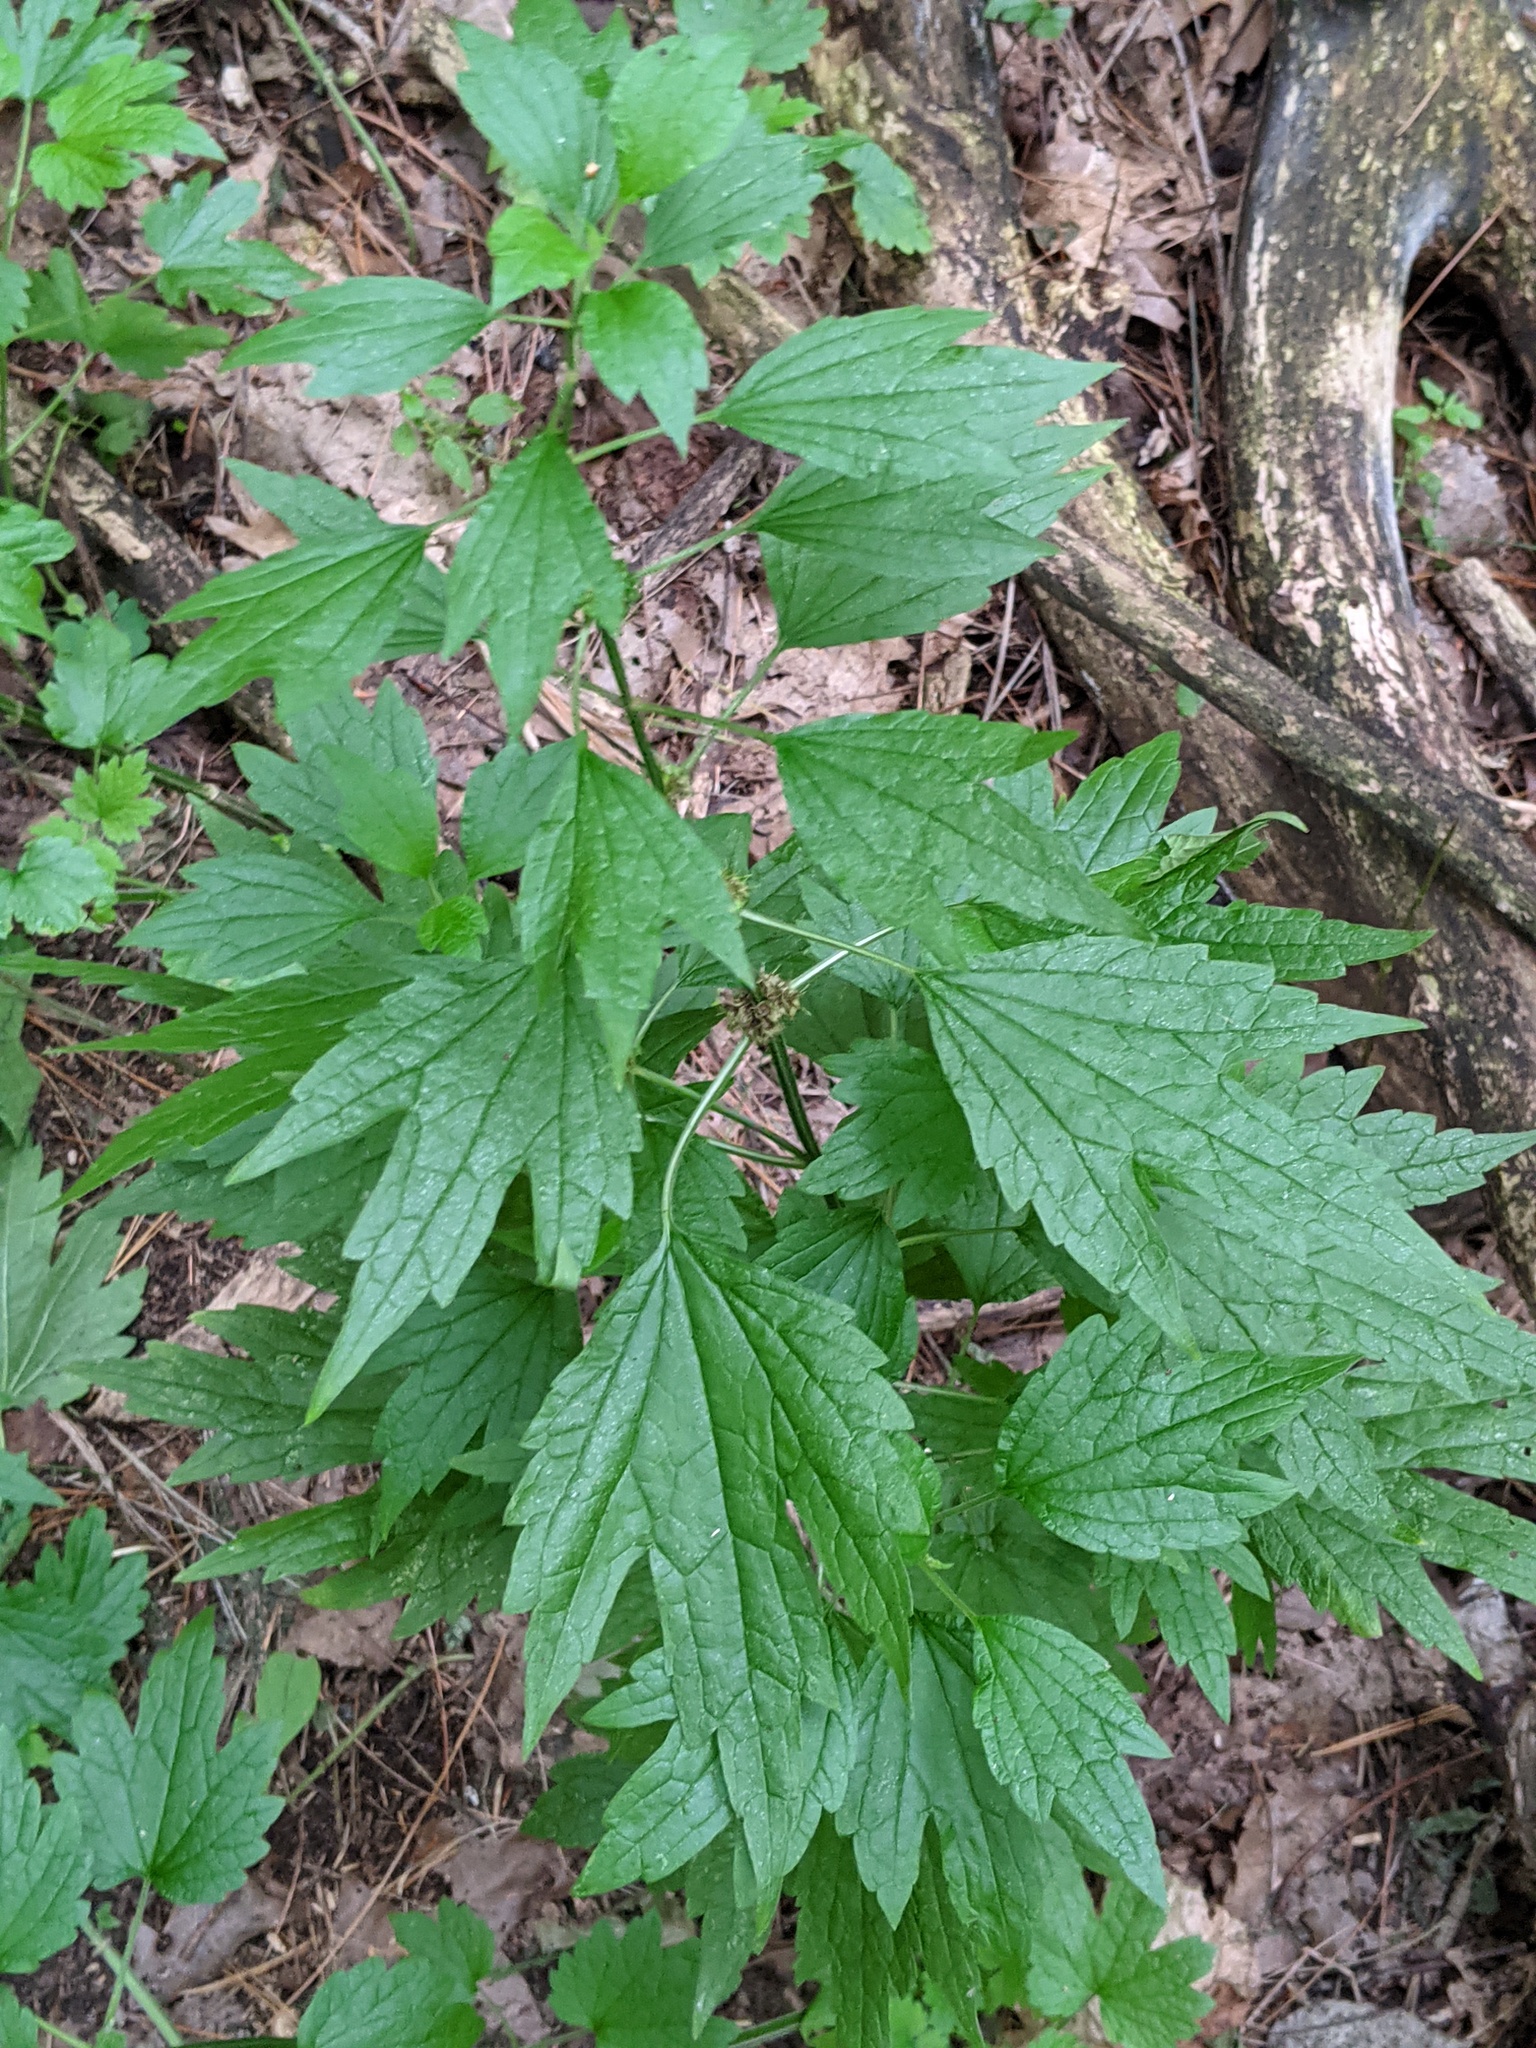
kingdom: Plantae
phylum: Tracheophyta
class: Magnoliopsida
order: Lamiales
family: Lamiaceae
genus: Leonurus
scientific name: Leonurus cardiaca
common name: Motherwort
